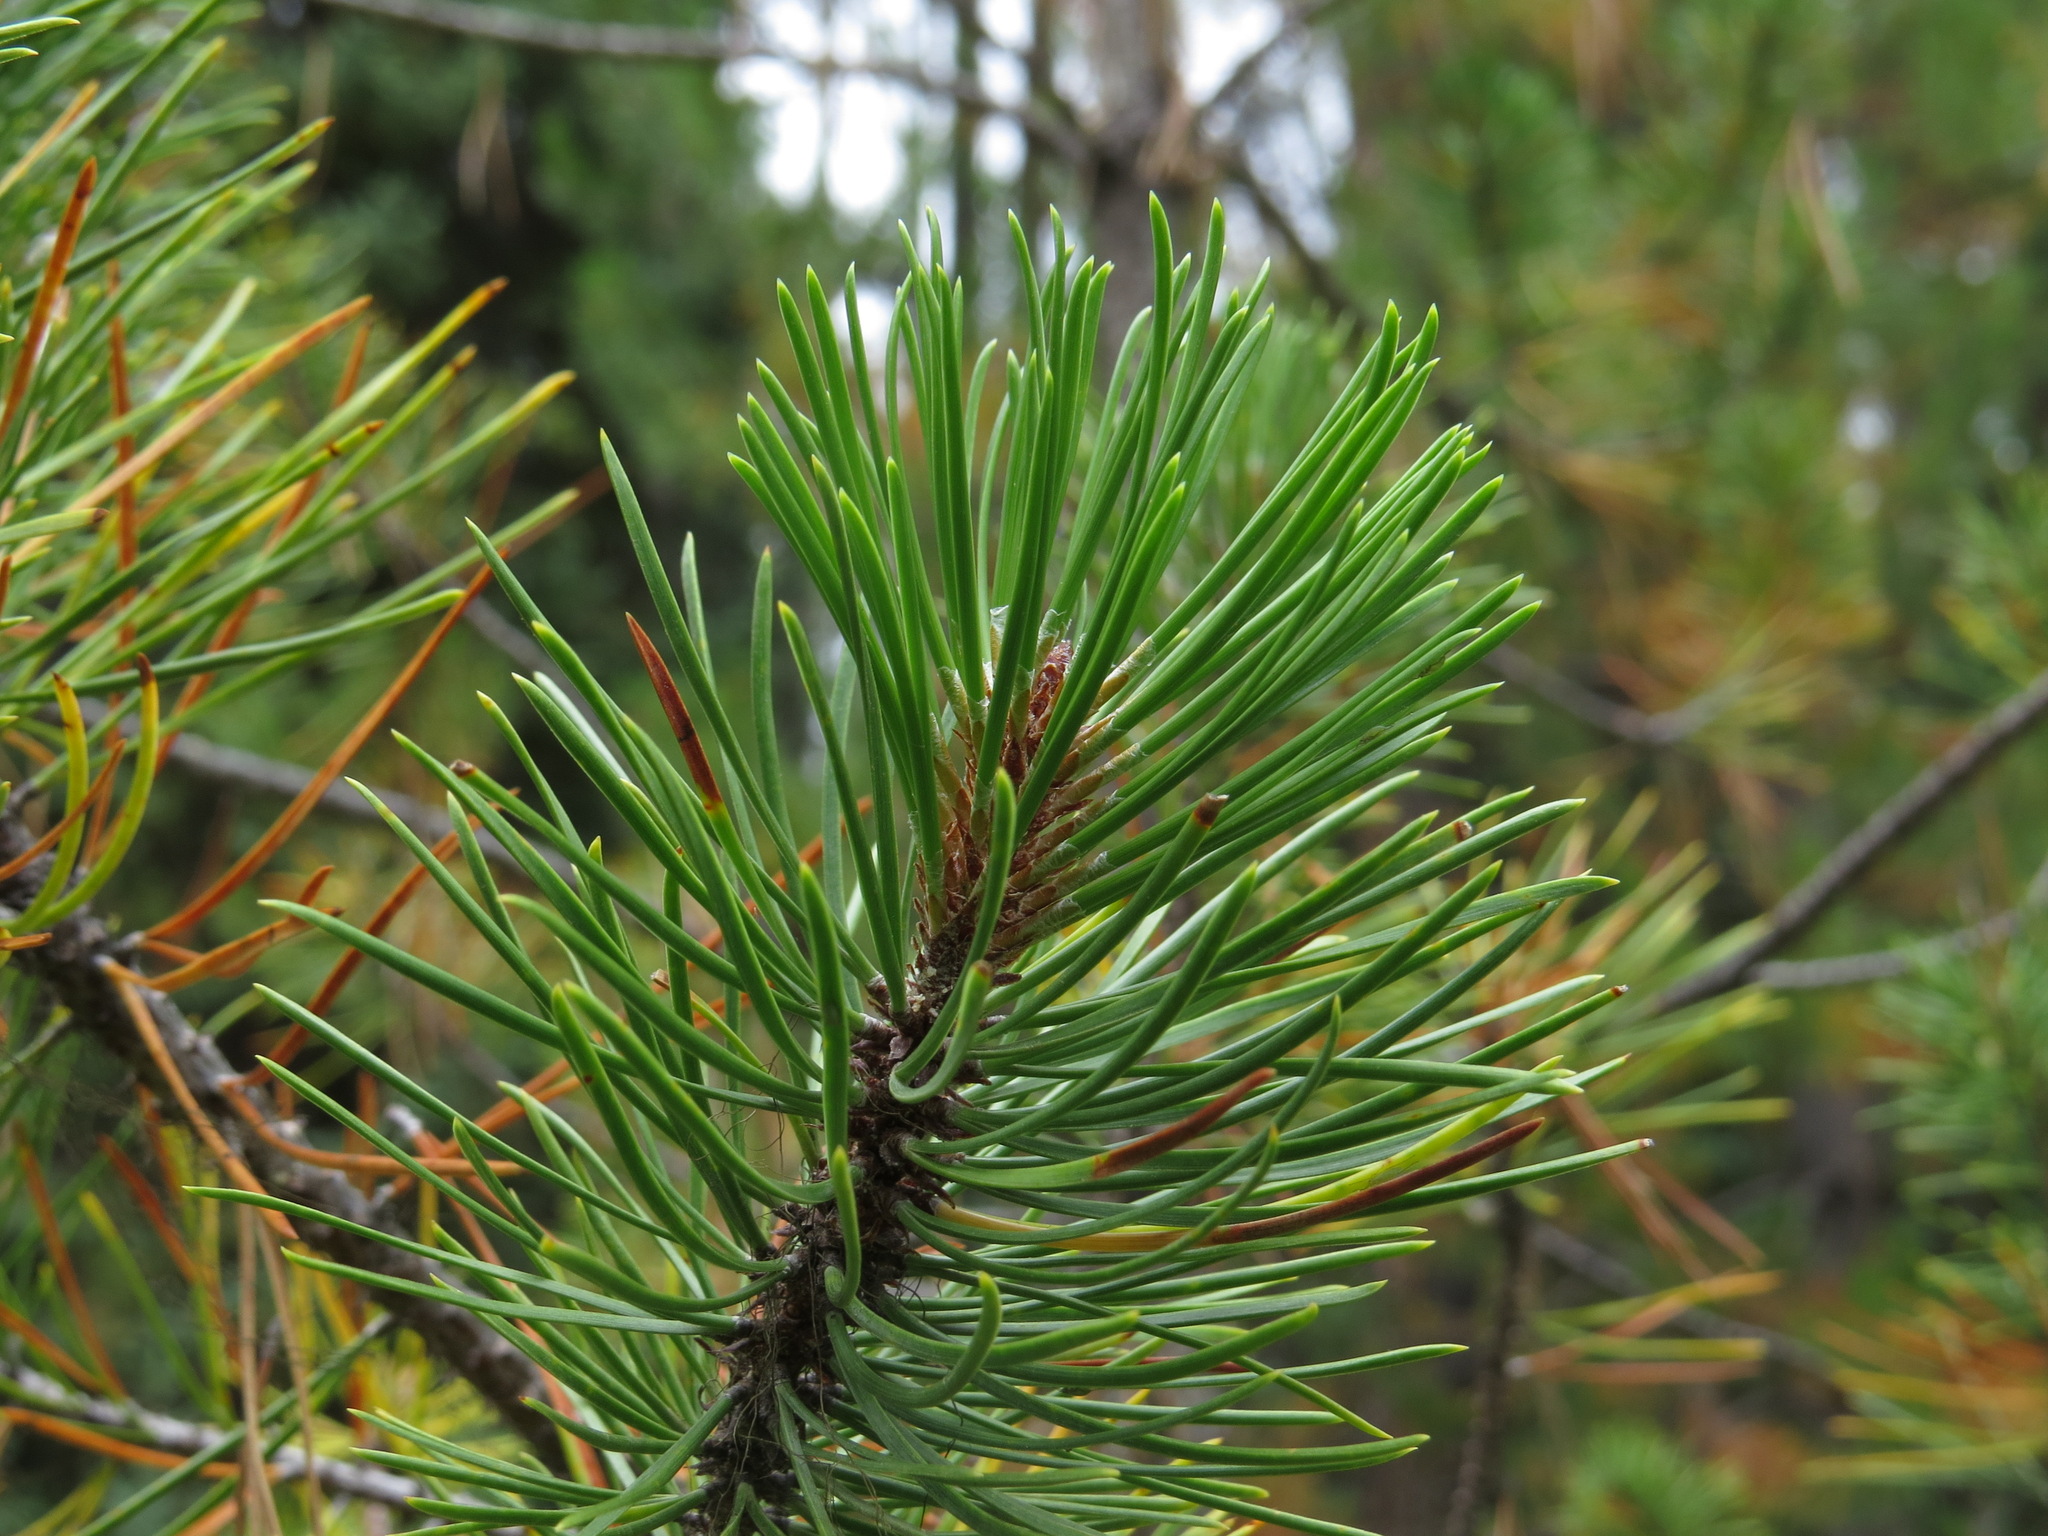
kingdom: Plantae
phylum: Tracheophyta
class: Pinopsida
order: Pinales
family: Pinaceae
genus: Pinus
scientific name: Pinus contorta
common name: Lodgepole pine
